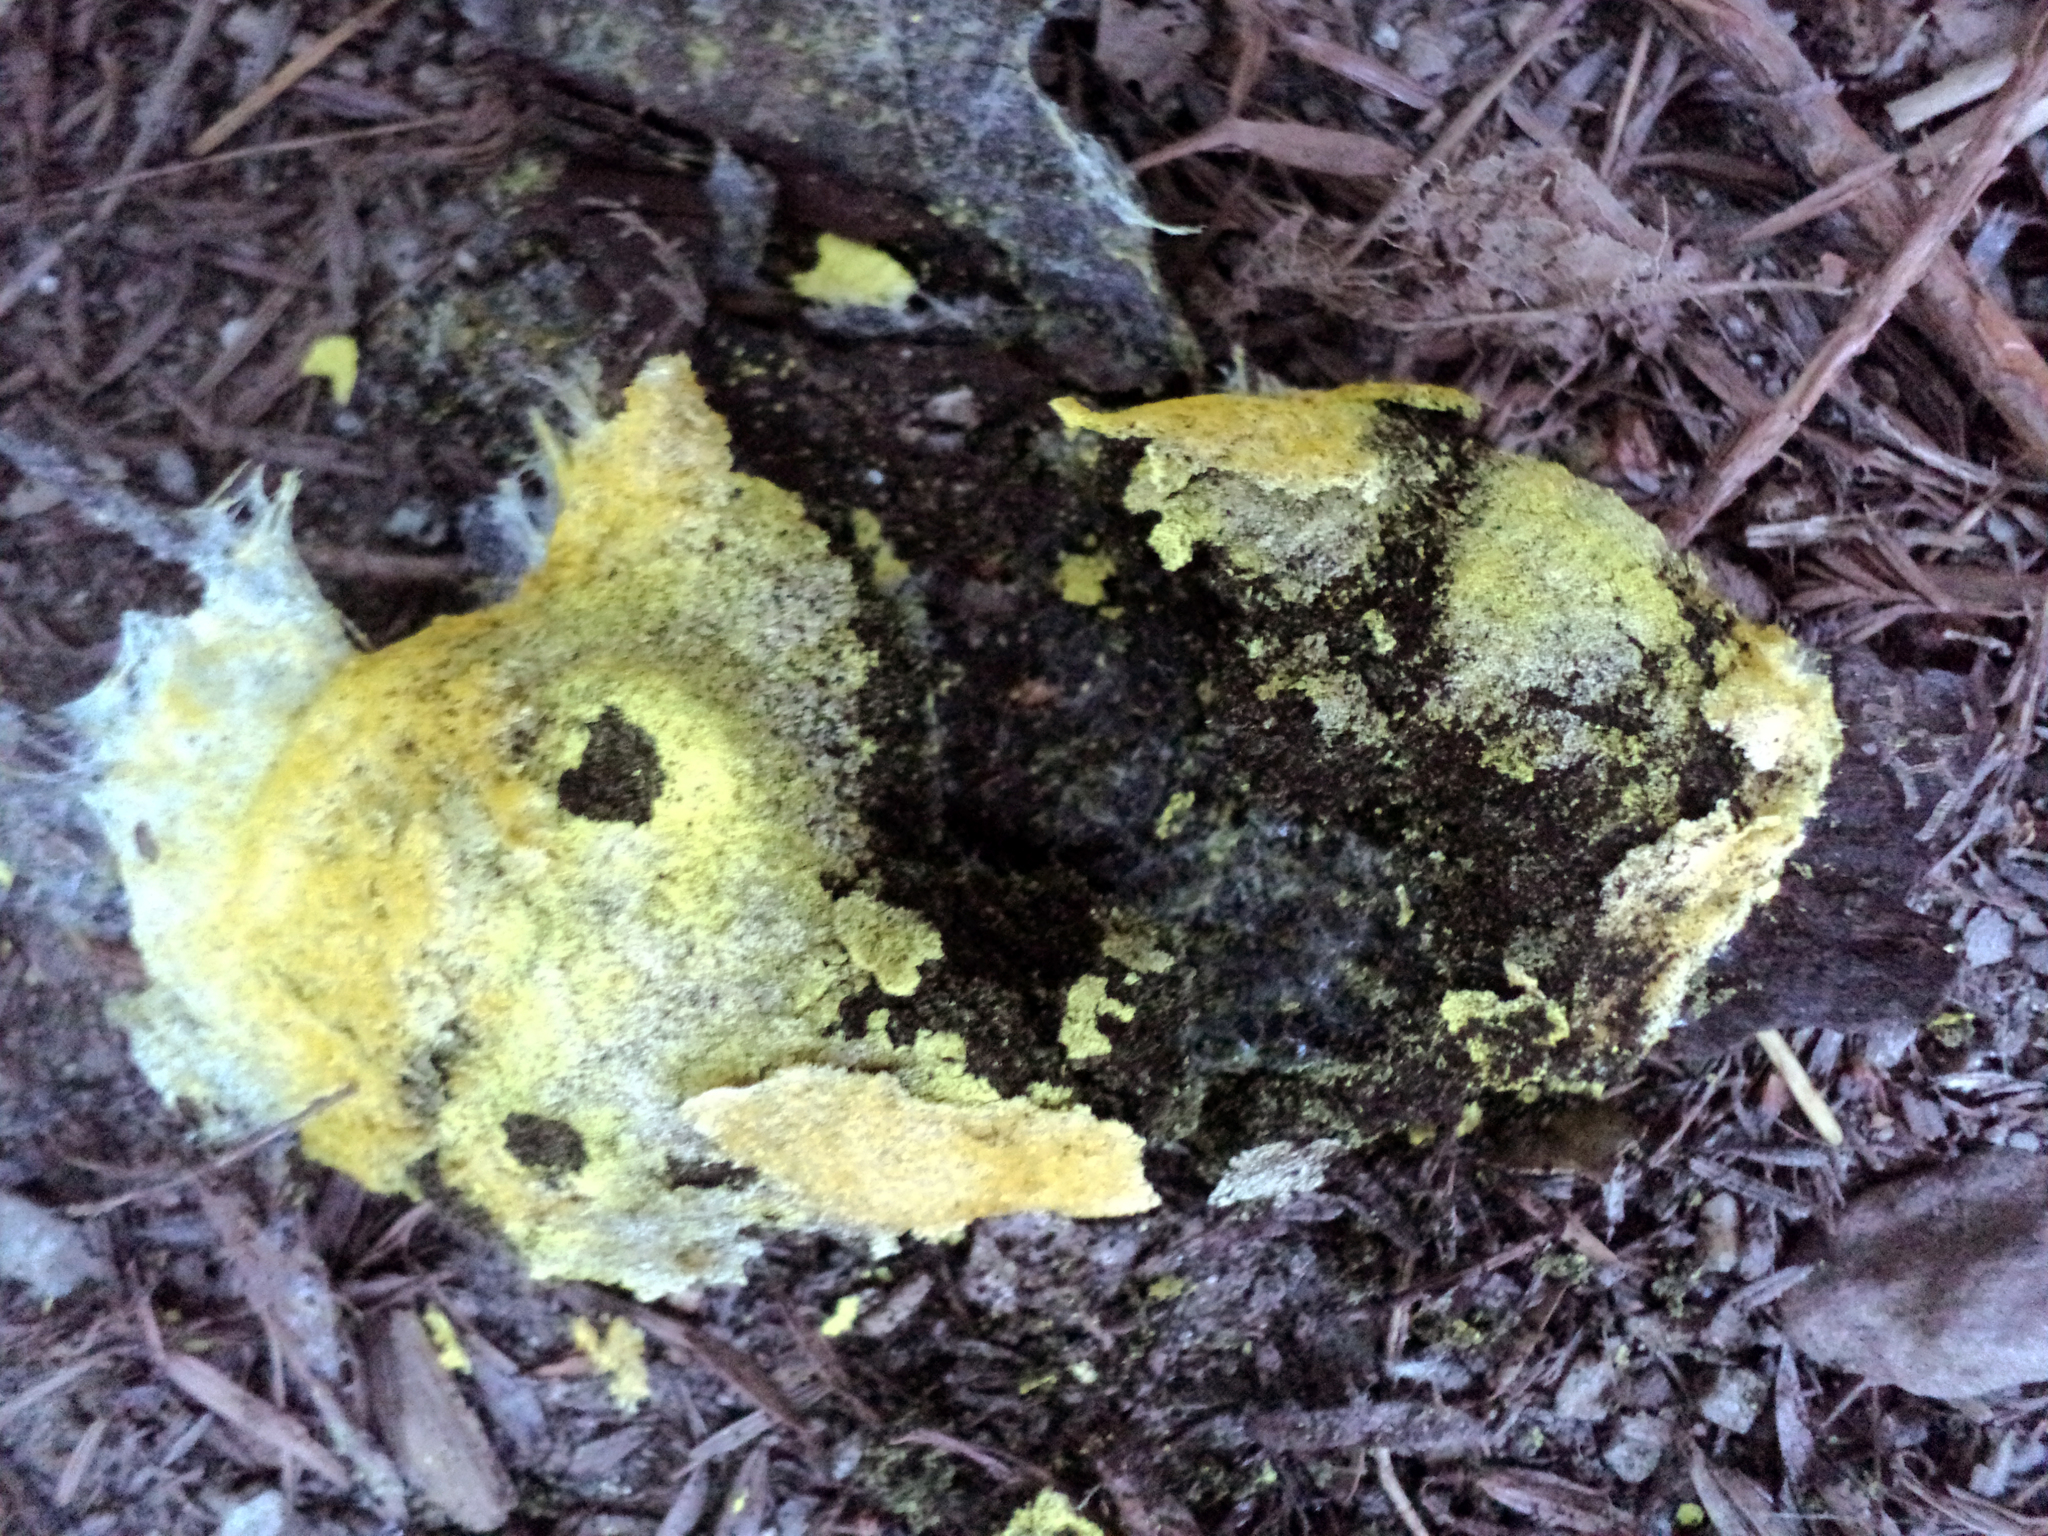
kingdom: Protozoa
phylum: Mycetozoa
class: Myxomycetes
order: Physarales
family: Physaraceae
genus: Fuligo
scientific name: Fuligo septica
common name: Dog vomit slime mold
